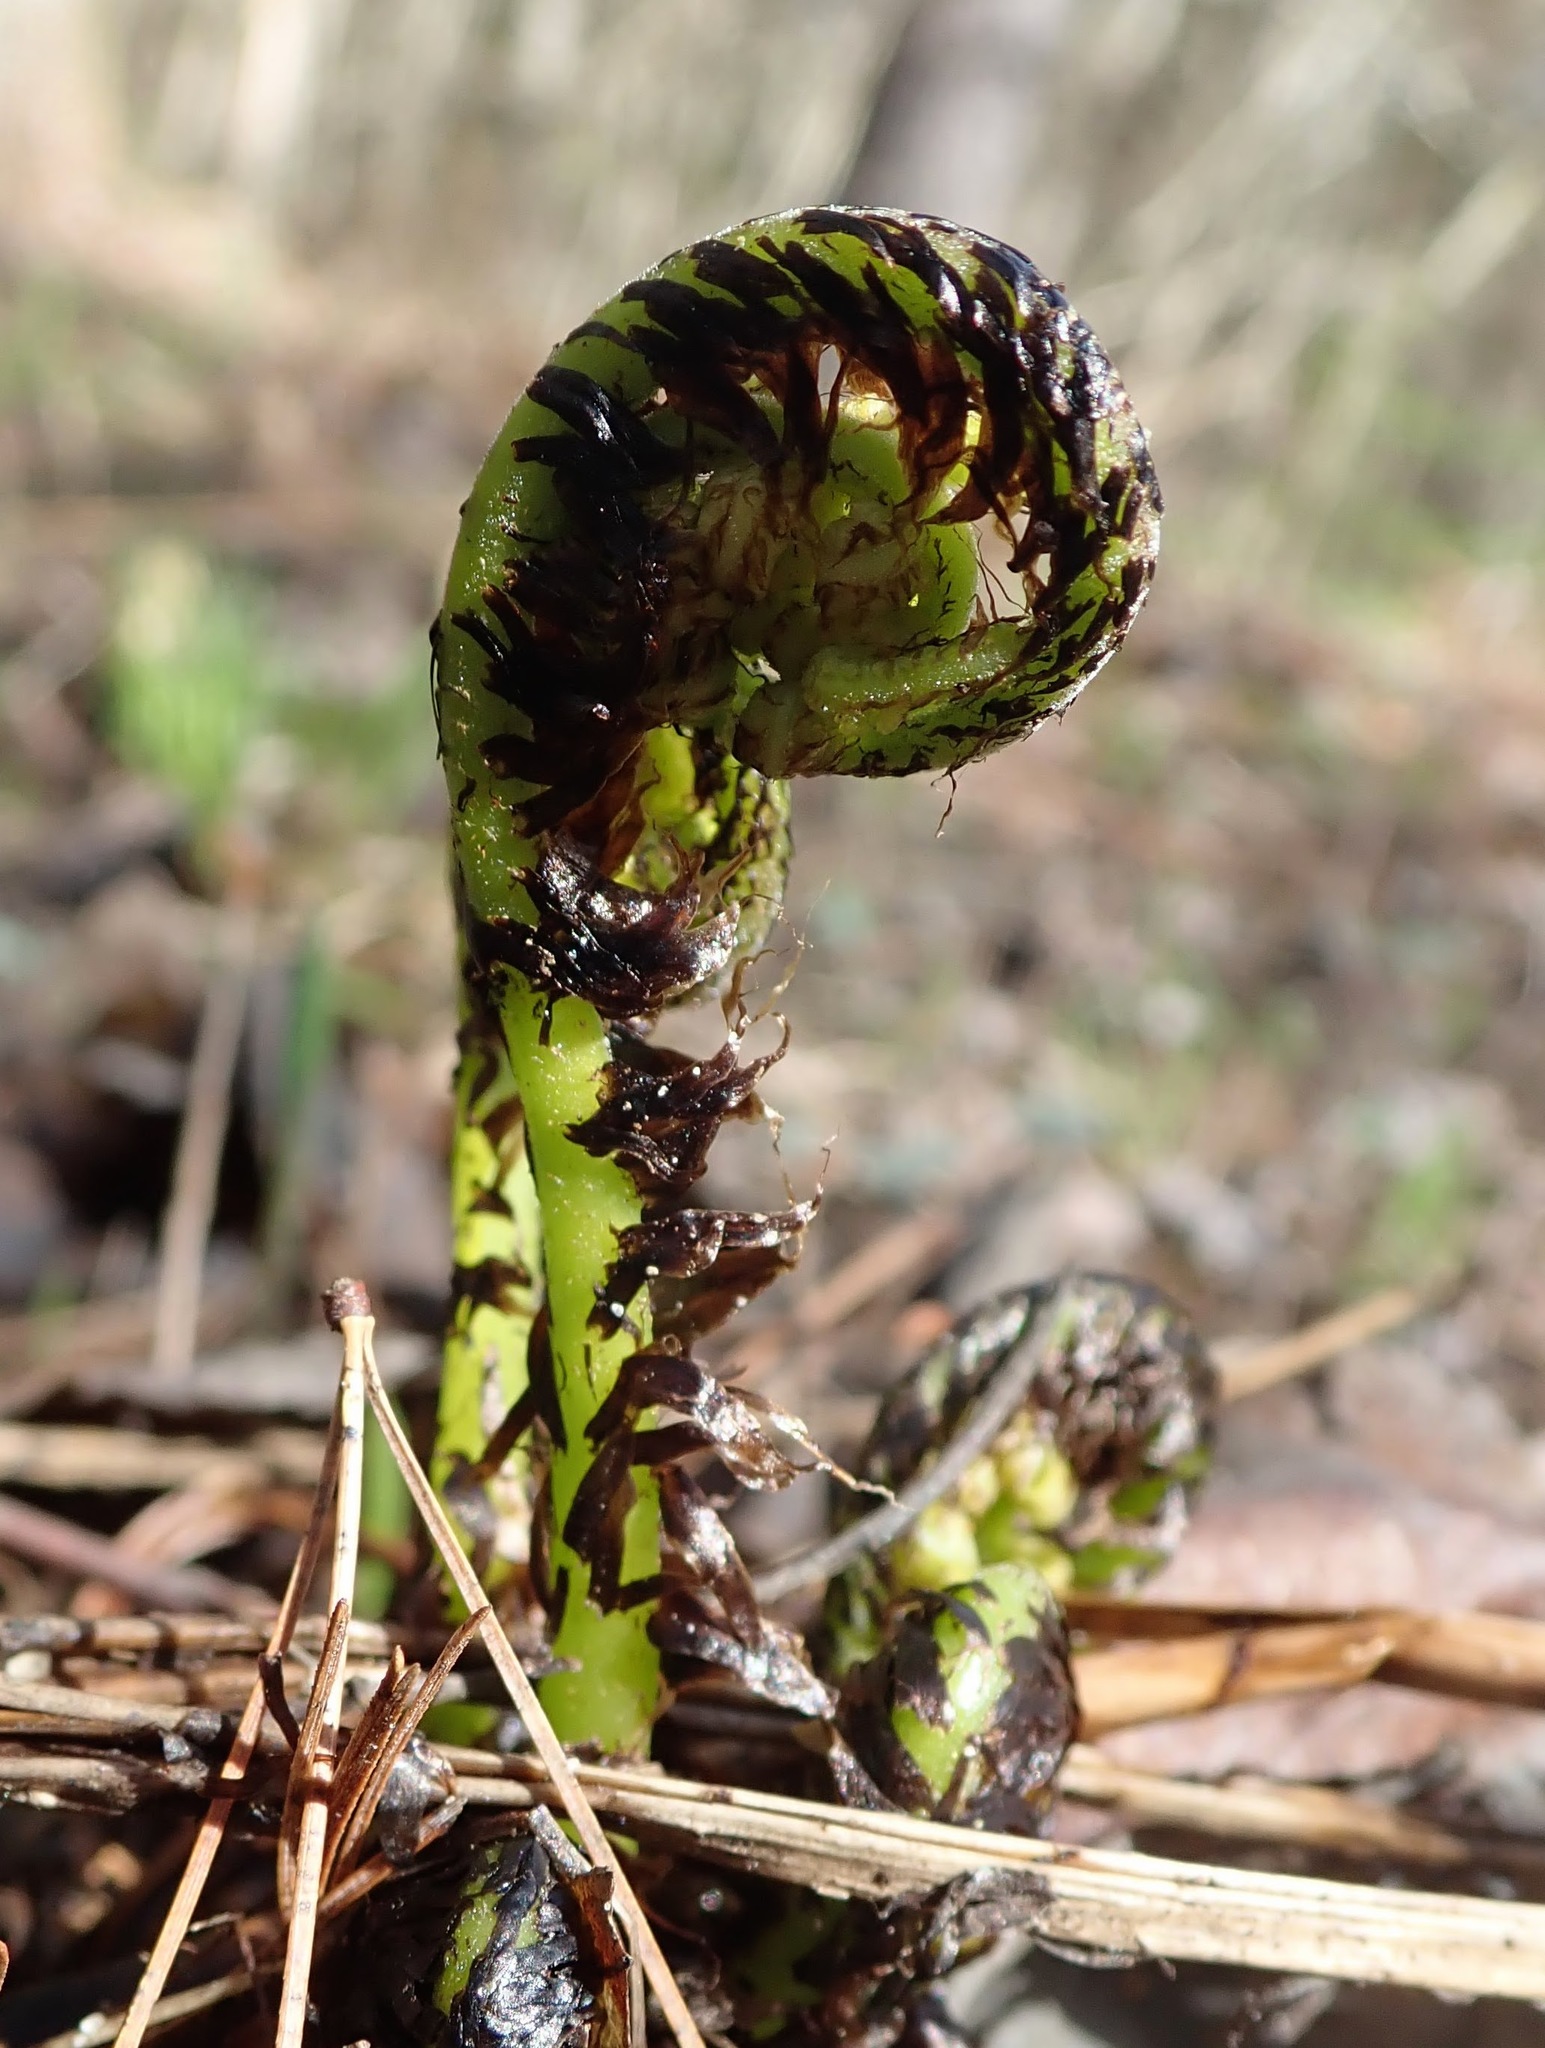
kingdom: Plantae
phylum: Tracheophyta
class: Polypodiopsida
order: Polypodiales
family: Athyriaceae
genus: Athyrium
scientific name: Athyrium angustum
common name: Northern lady fern
